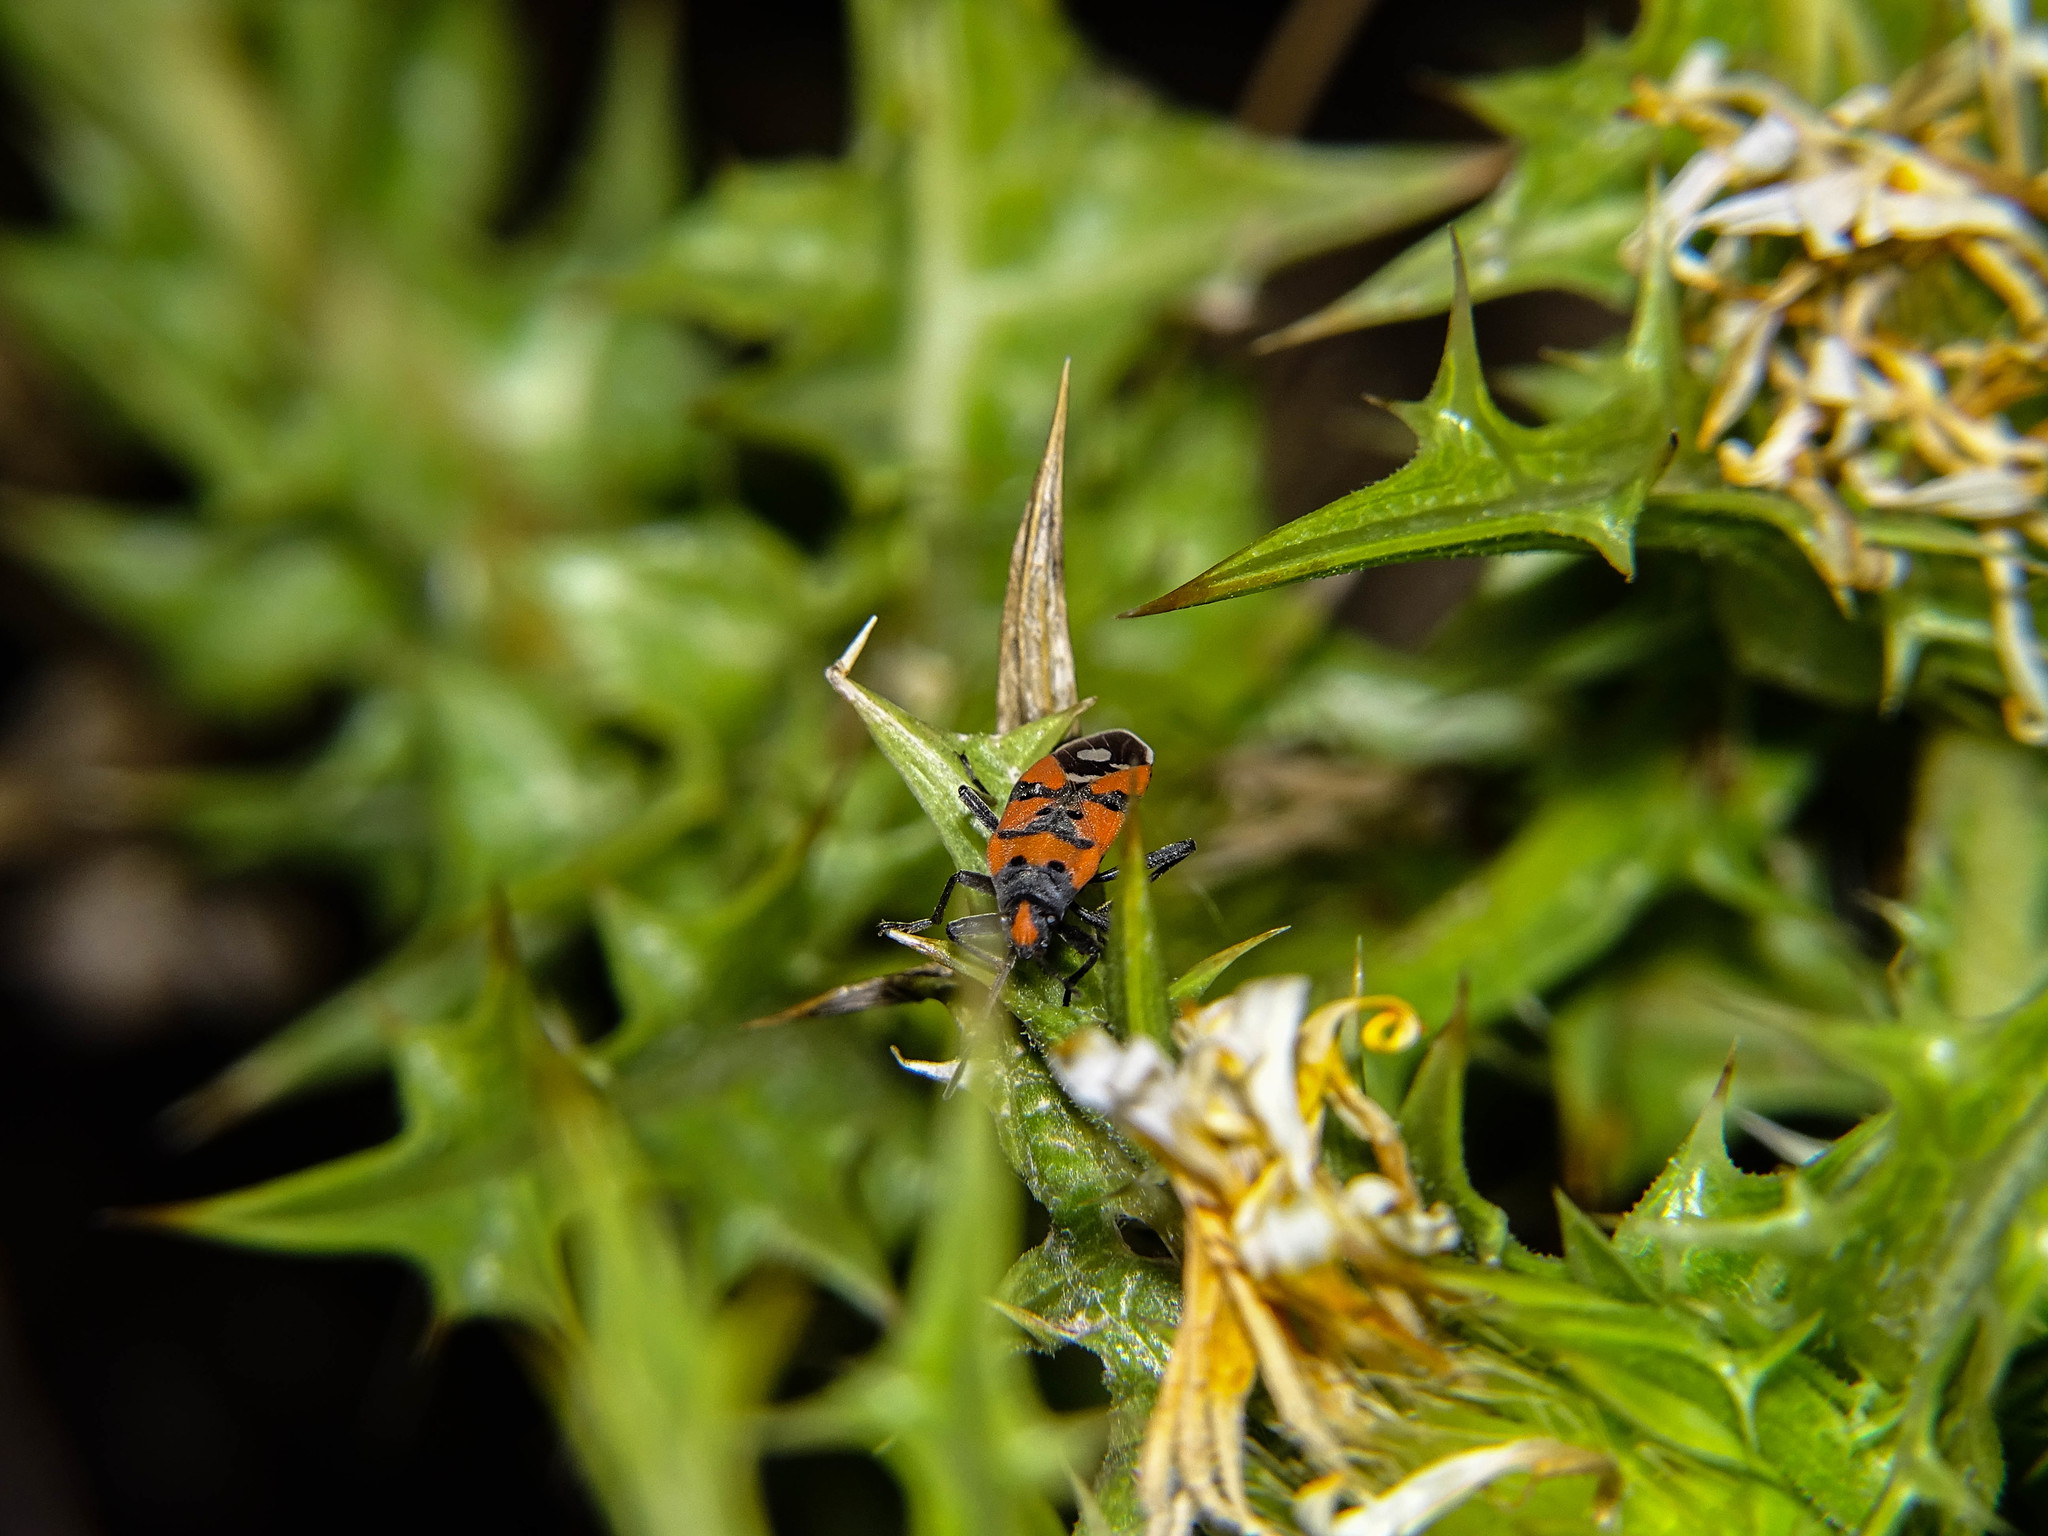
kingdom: Animalia
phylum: Arthropoda
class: Insecta
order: Hemiptera
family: Lygaeidae
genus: Lygaeus
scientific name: Lygaeus equestris
